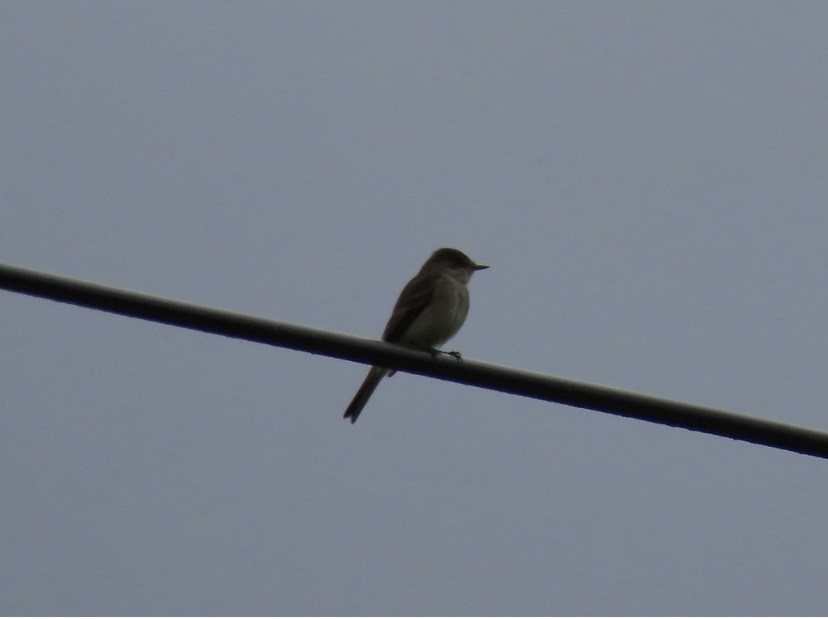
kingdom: Animalia
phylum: Chordata
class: Aves
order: Passeriformes
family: Tyrannidae
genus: Empidonax
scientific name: Empidonax traillii
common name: Willow flycatcher
